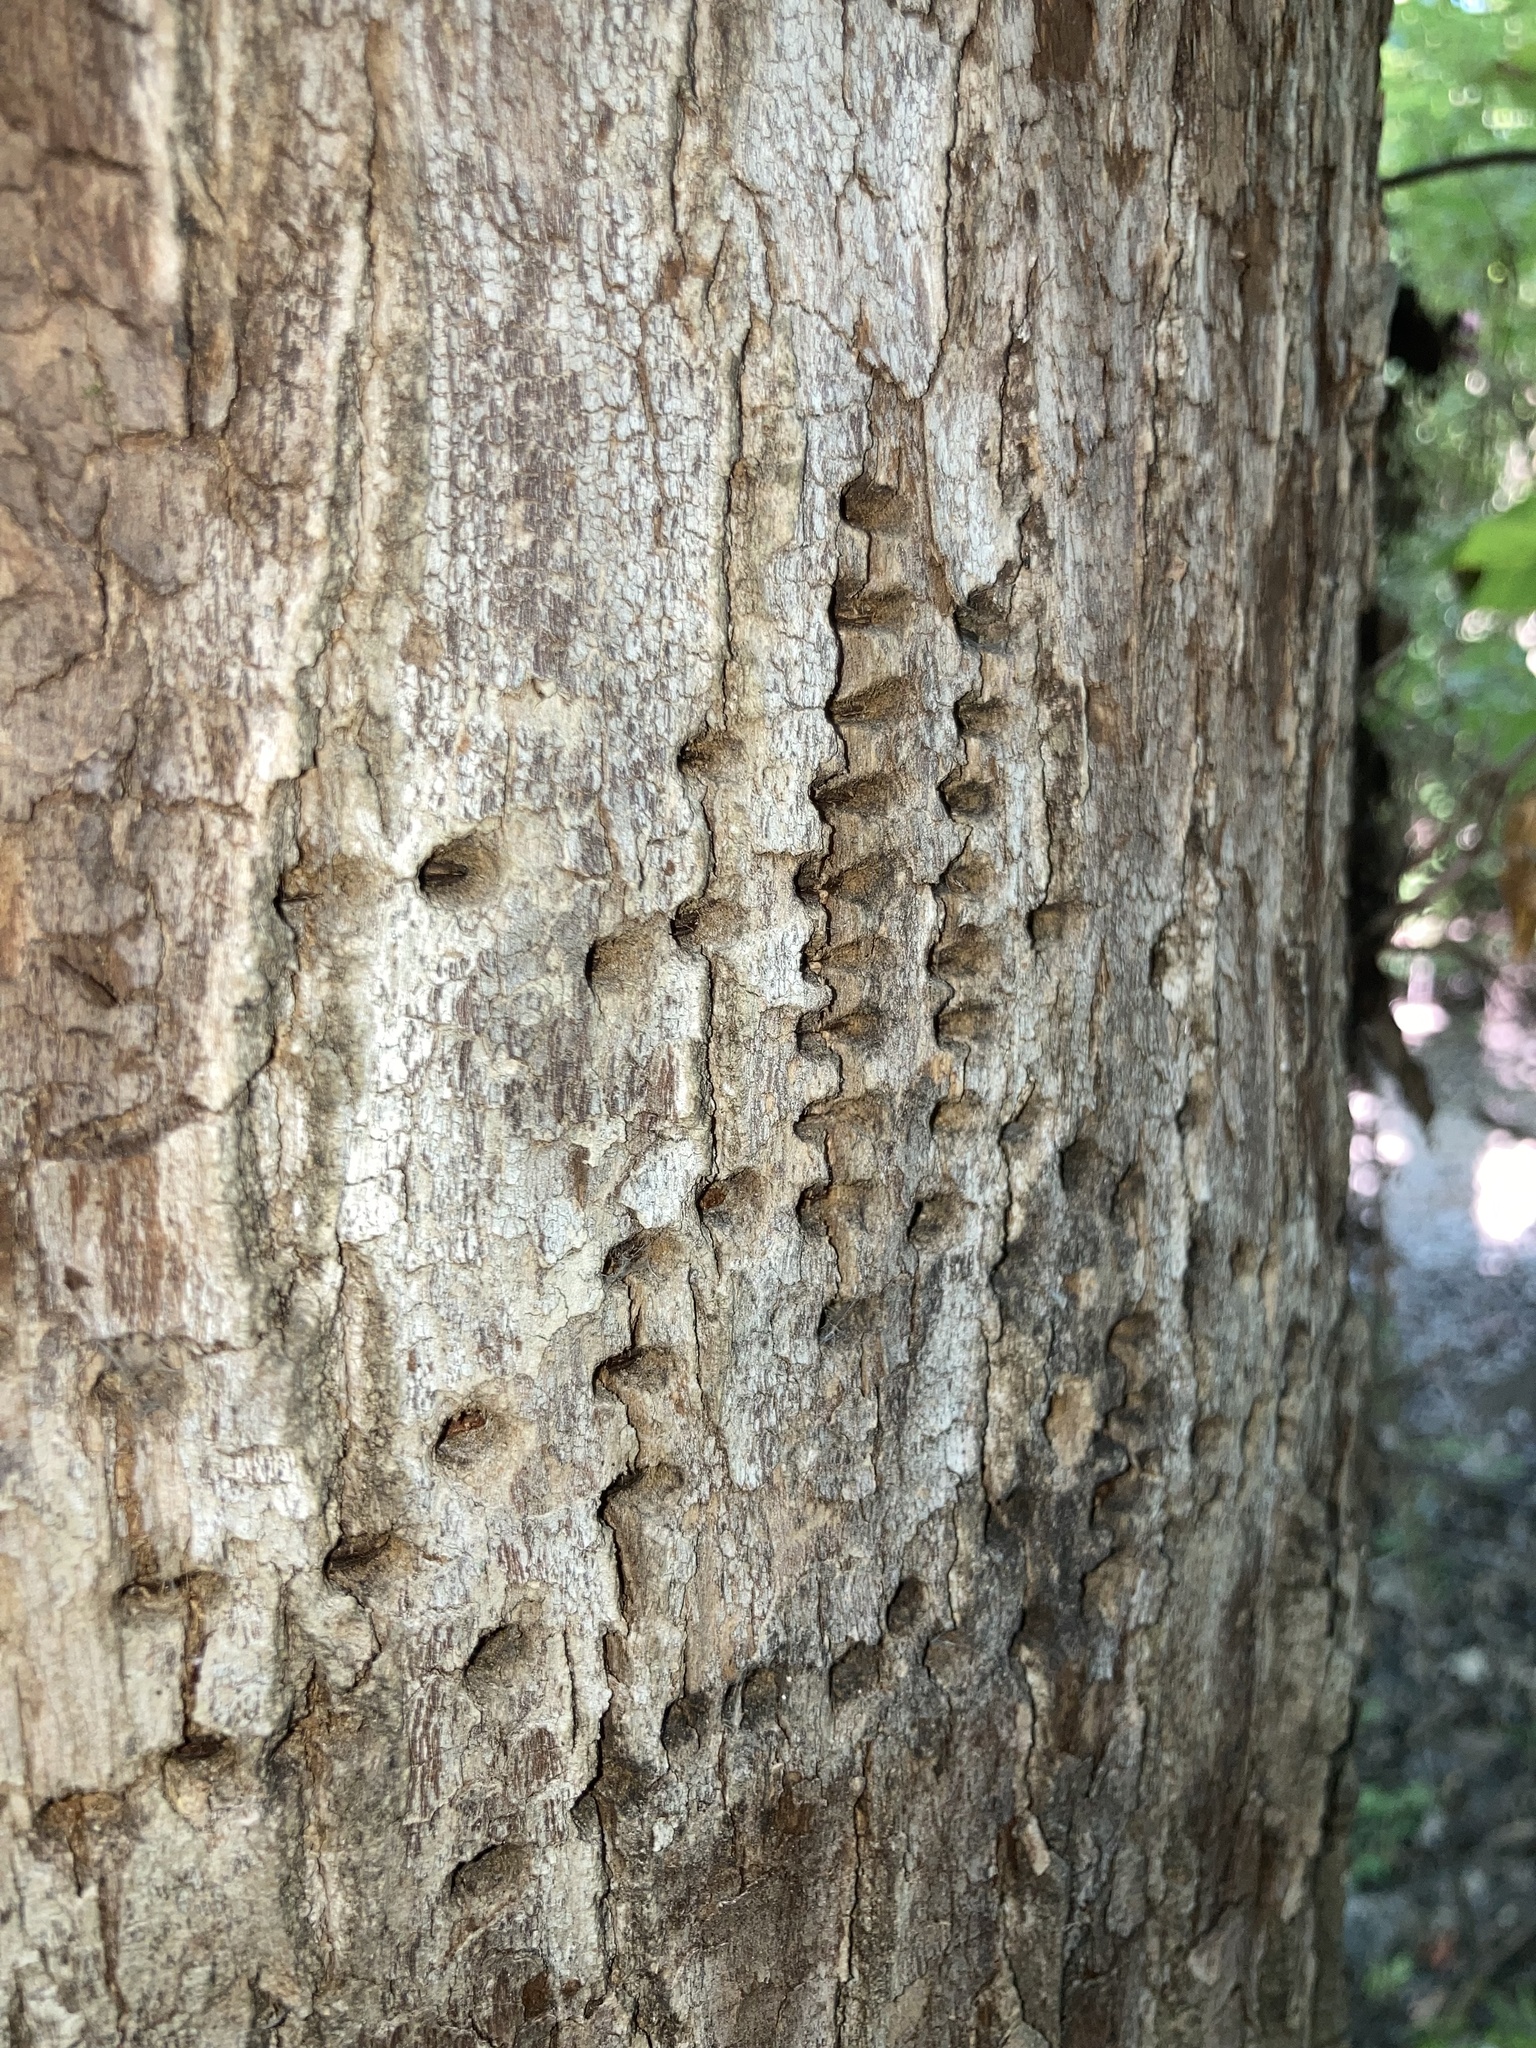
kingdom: Animalia
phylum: Chordata
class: Aves
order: Piciformes
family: Picidae
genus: Sphyrapicus
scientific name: Sphyrapicus varius
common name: Yellow-bellied sapsucker
